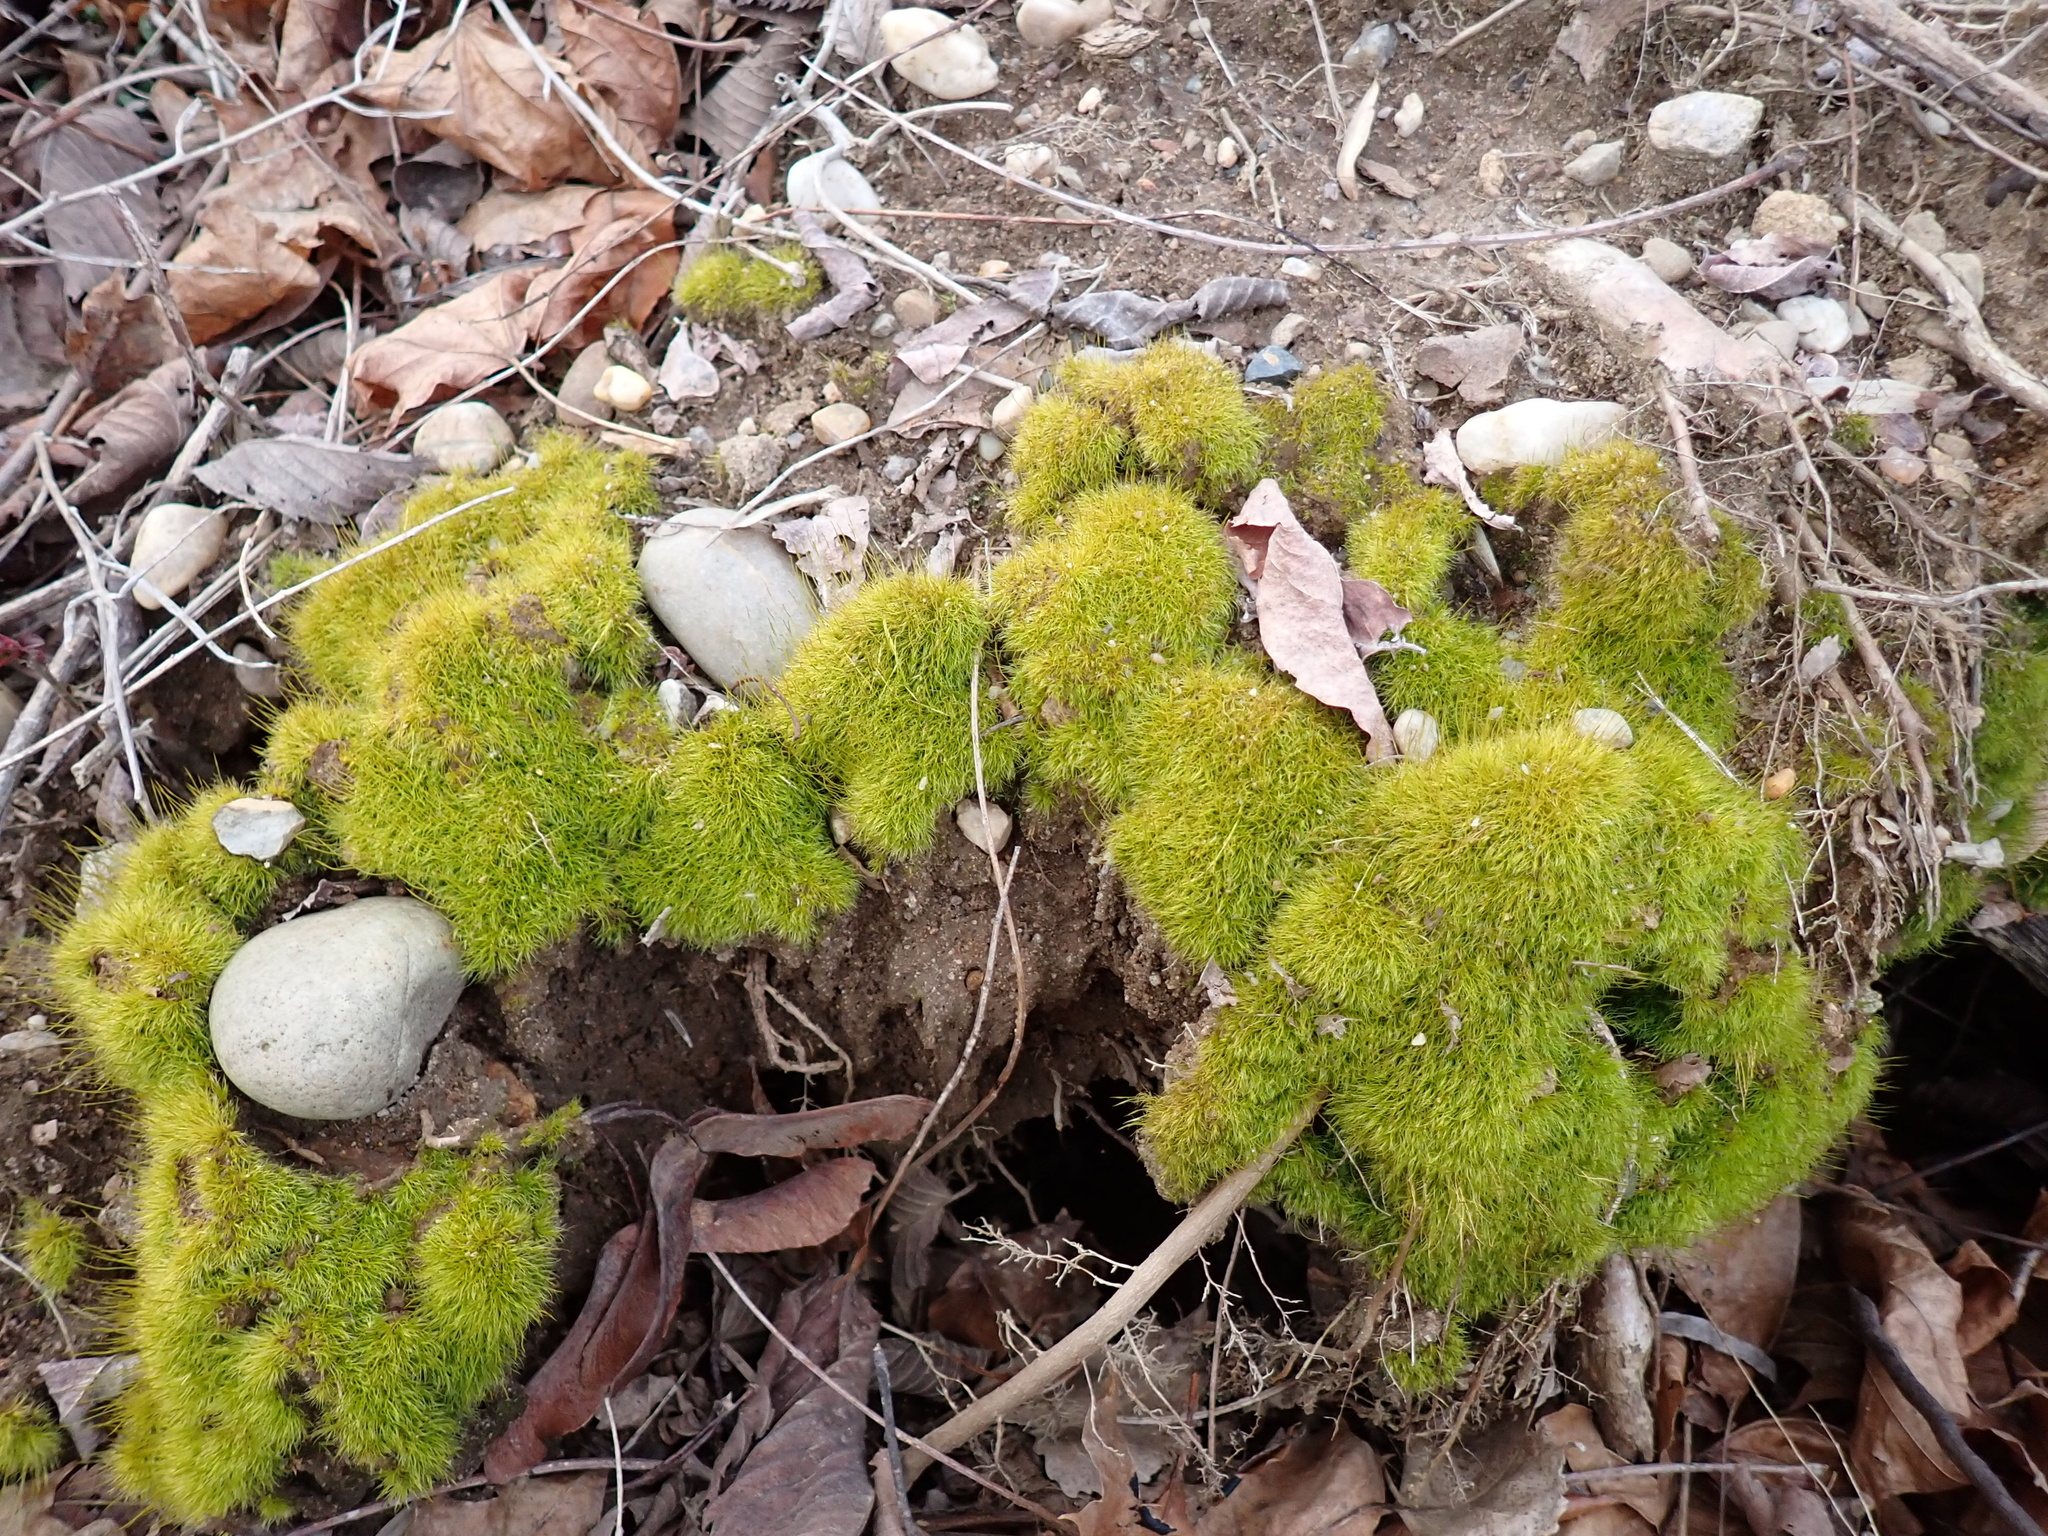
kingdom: Plantae
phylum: Bryophyta
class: Bryopsida
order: Dicranales
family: Ditrichaceae
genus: Ditrichum
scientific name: Ditrichum pallidum
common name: Pale cow-hair moss
